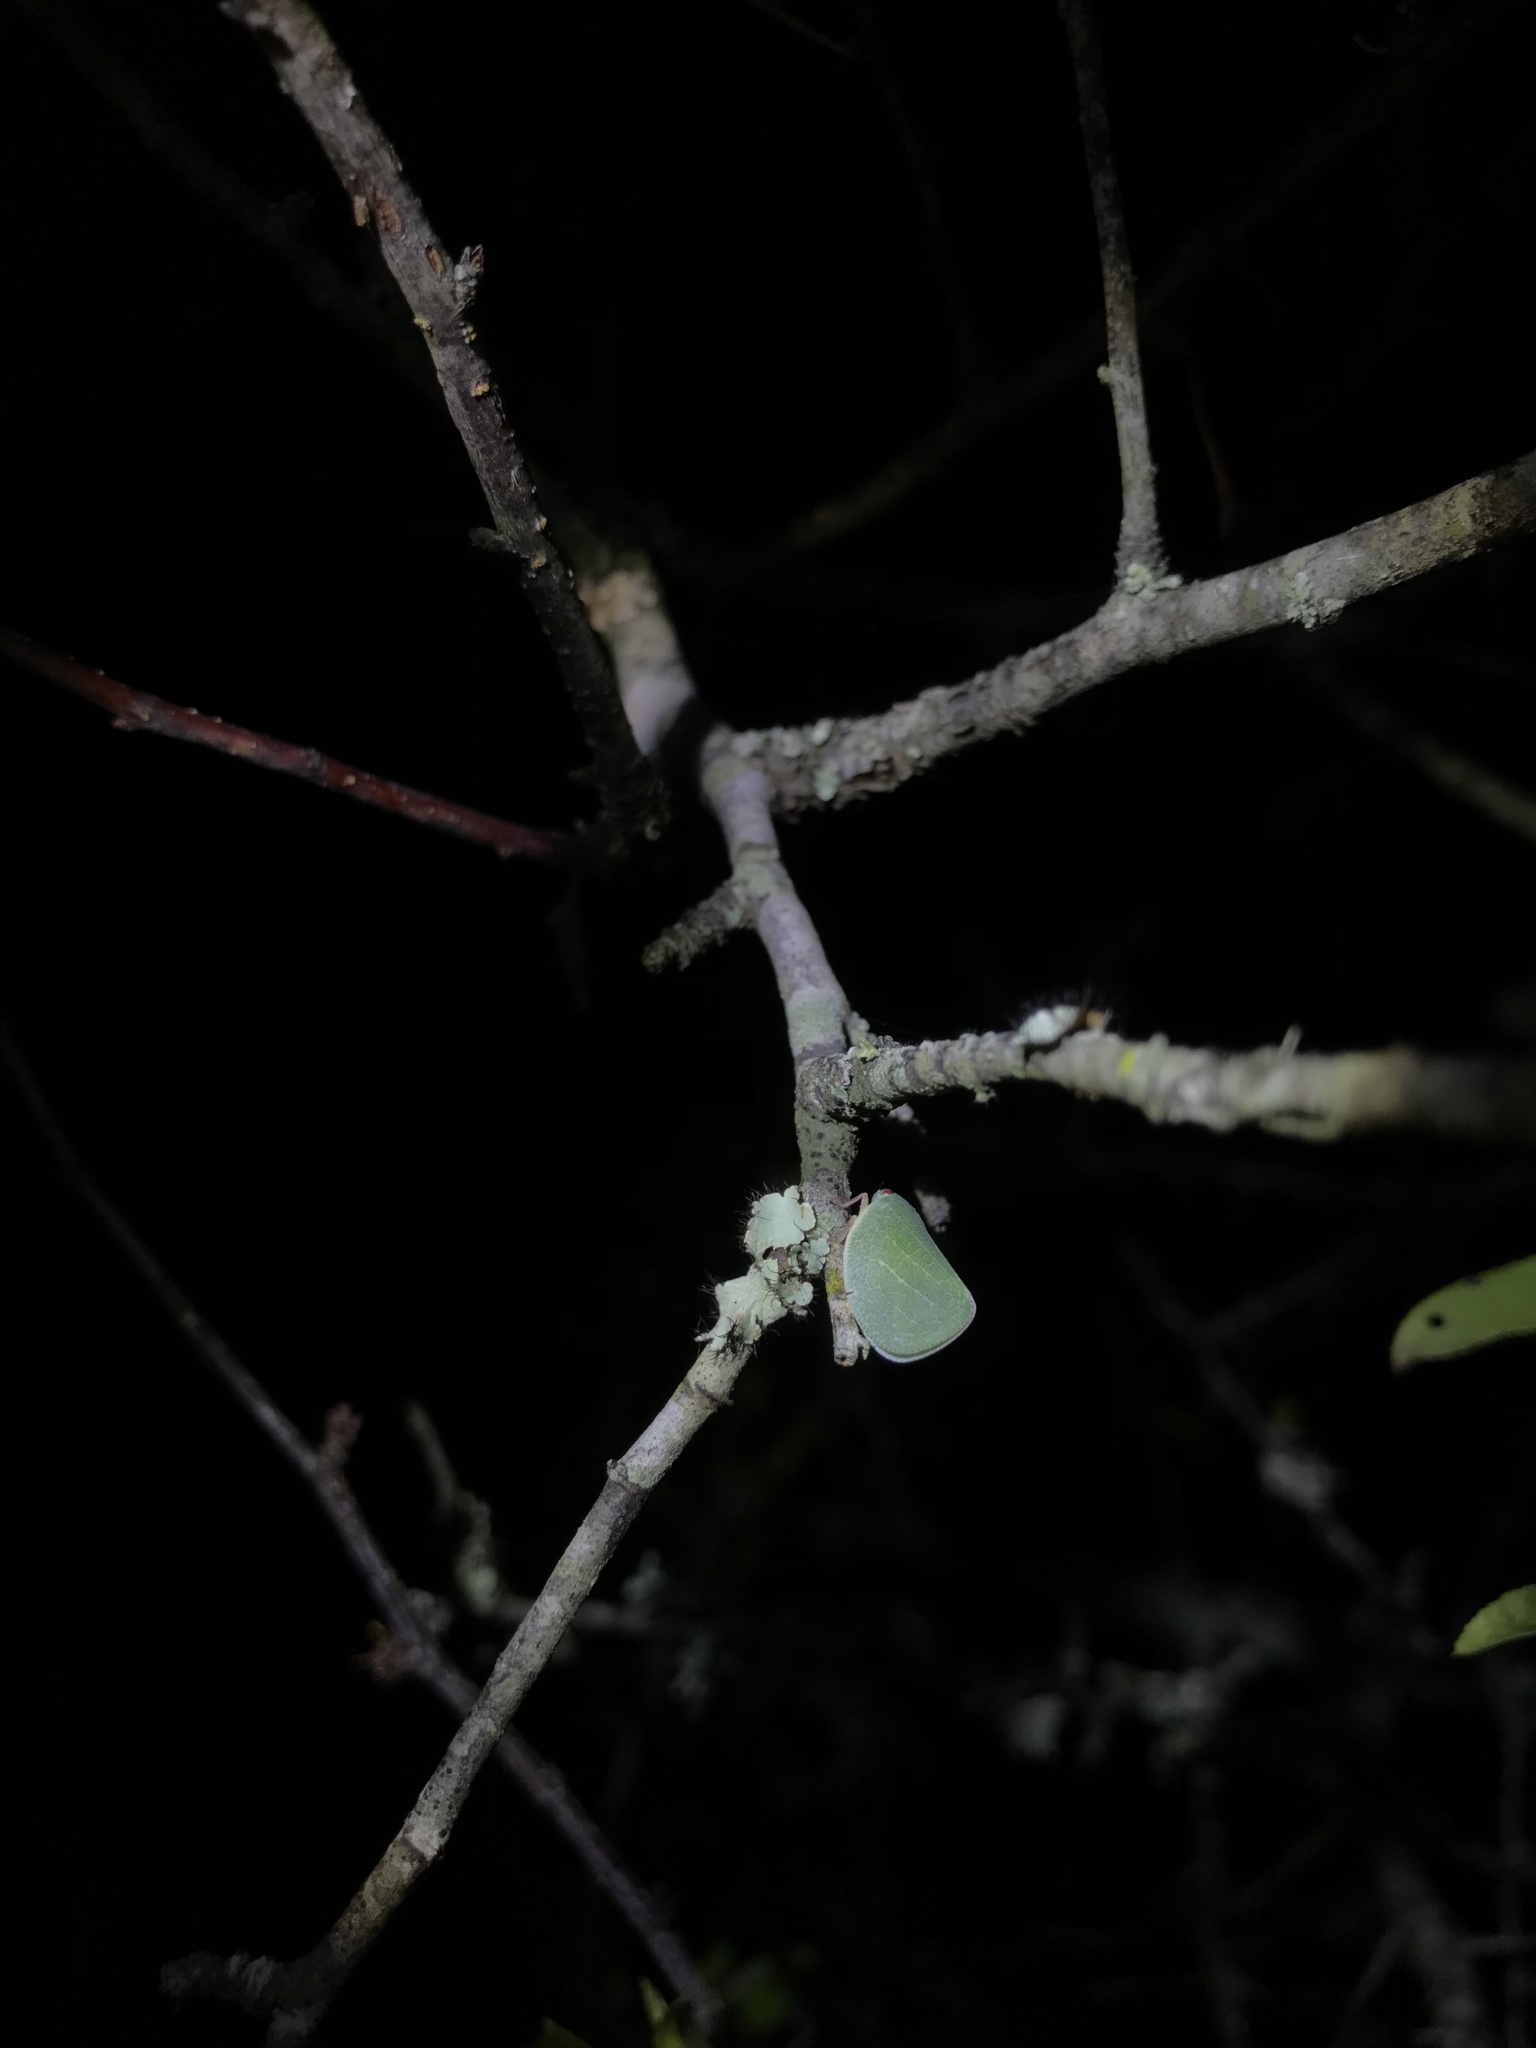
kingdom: Animalia
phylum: Arthropoda
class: Insecta
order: Hemiptera
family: Acanaloniidae
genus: Acanalonia
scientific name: Acanalonia servillei
